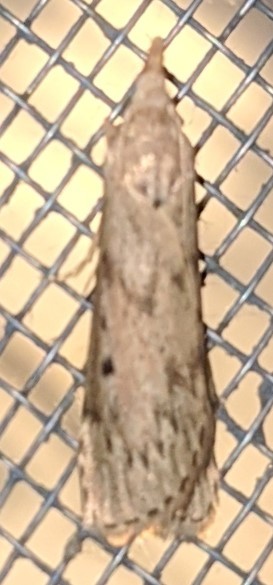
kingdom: Animalia
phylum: Arthropoda
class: Insecta
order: Lepidoptera
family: Pyralidae
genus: Aphomia
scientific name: Aphomia sociella
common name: Bee moth
